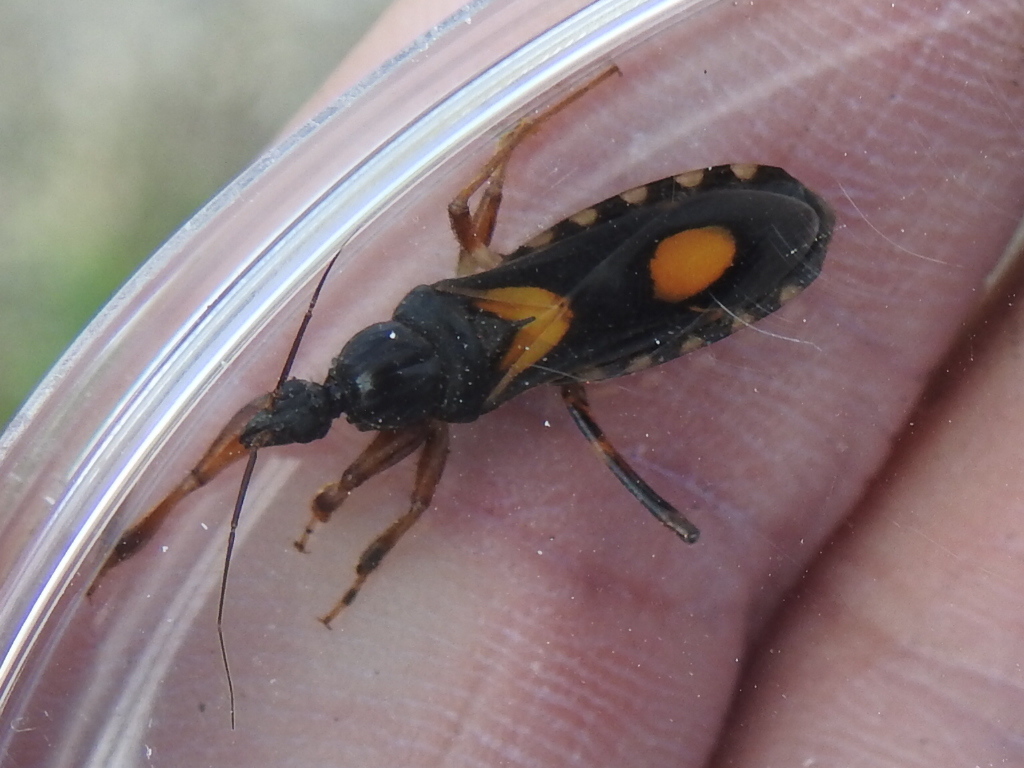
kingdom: Animalia
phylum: Arthropoda
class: Insecta
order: Hemiptera
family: Reduviidae
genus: Rasahus
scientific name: Rasahus biguttatus
